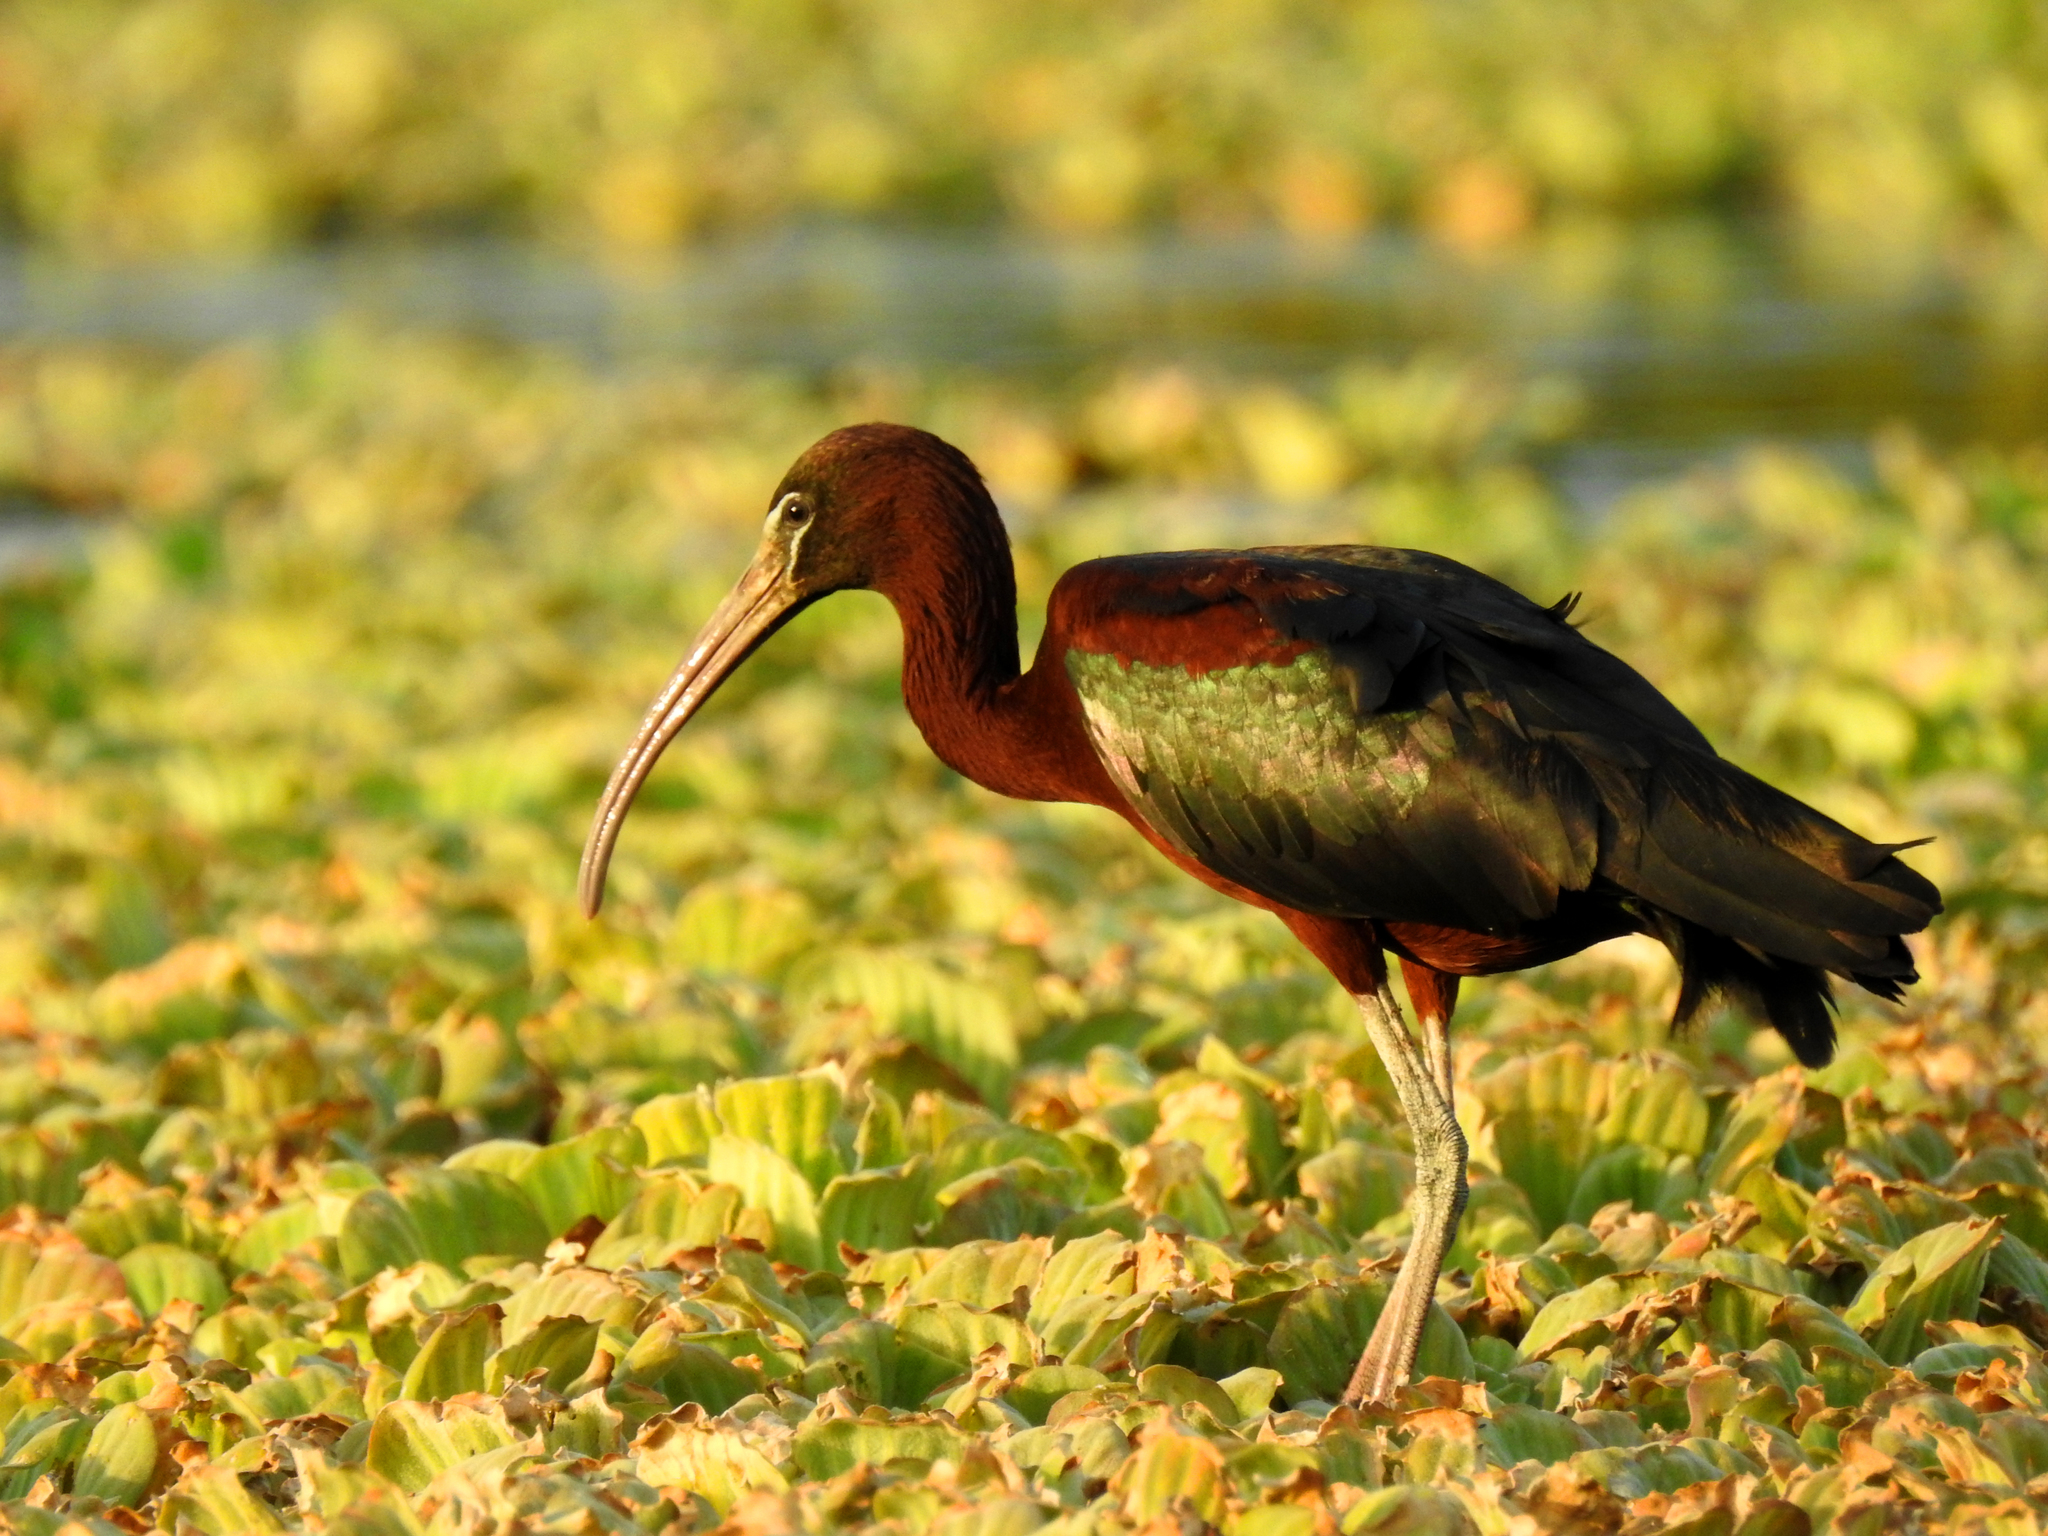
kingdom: Animalia
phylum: Chordata
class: Aves
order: Pelecaniformes
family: Threskiornithidae
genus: Plegadis
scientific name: Plegadis falcinellus
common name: Glossy ibis
